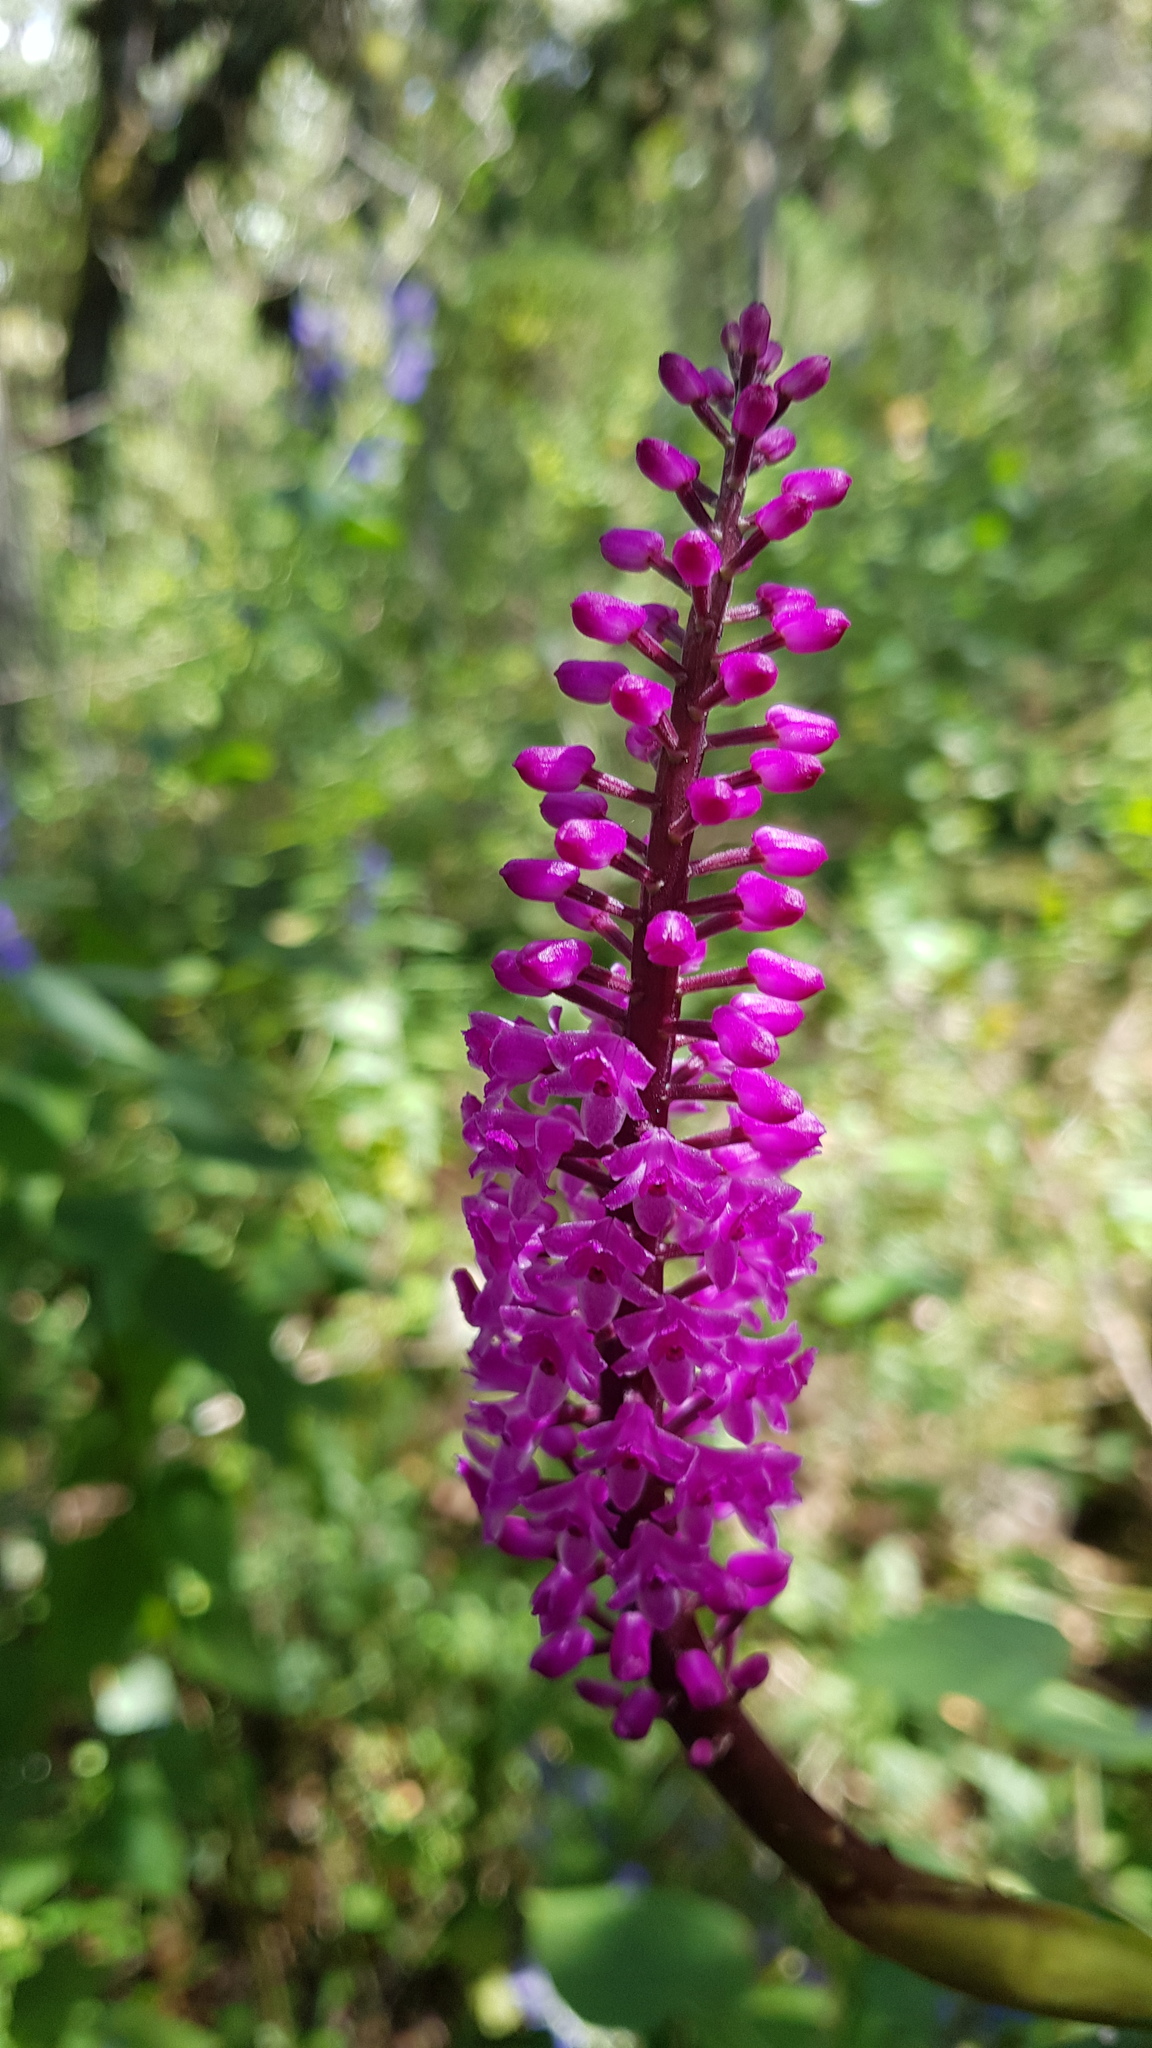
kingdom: Plantae
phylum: Tracheophyta
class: Liliopsida
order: Asparagales
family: Orchidaceae
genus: Arpophyllum
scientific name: Arpophyllum spicatum
